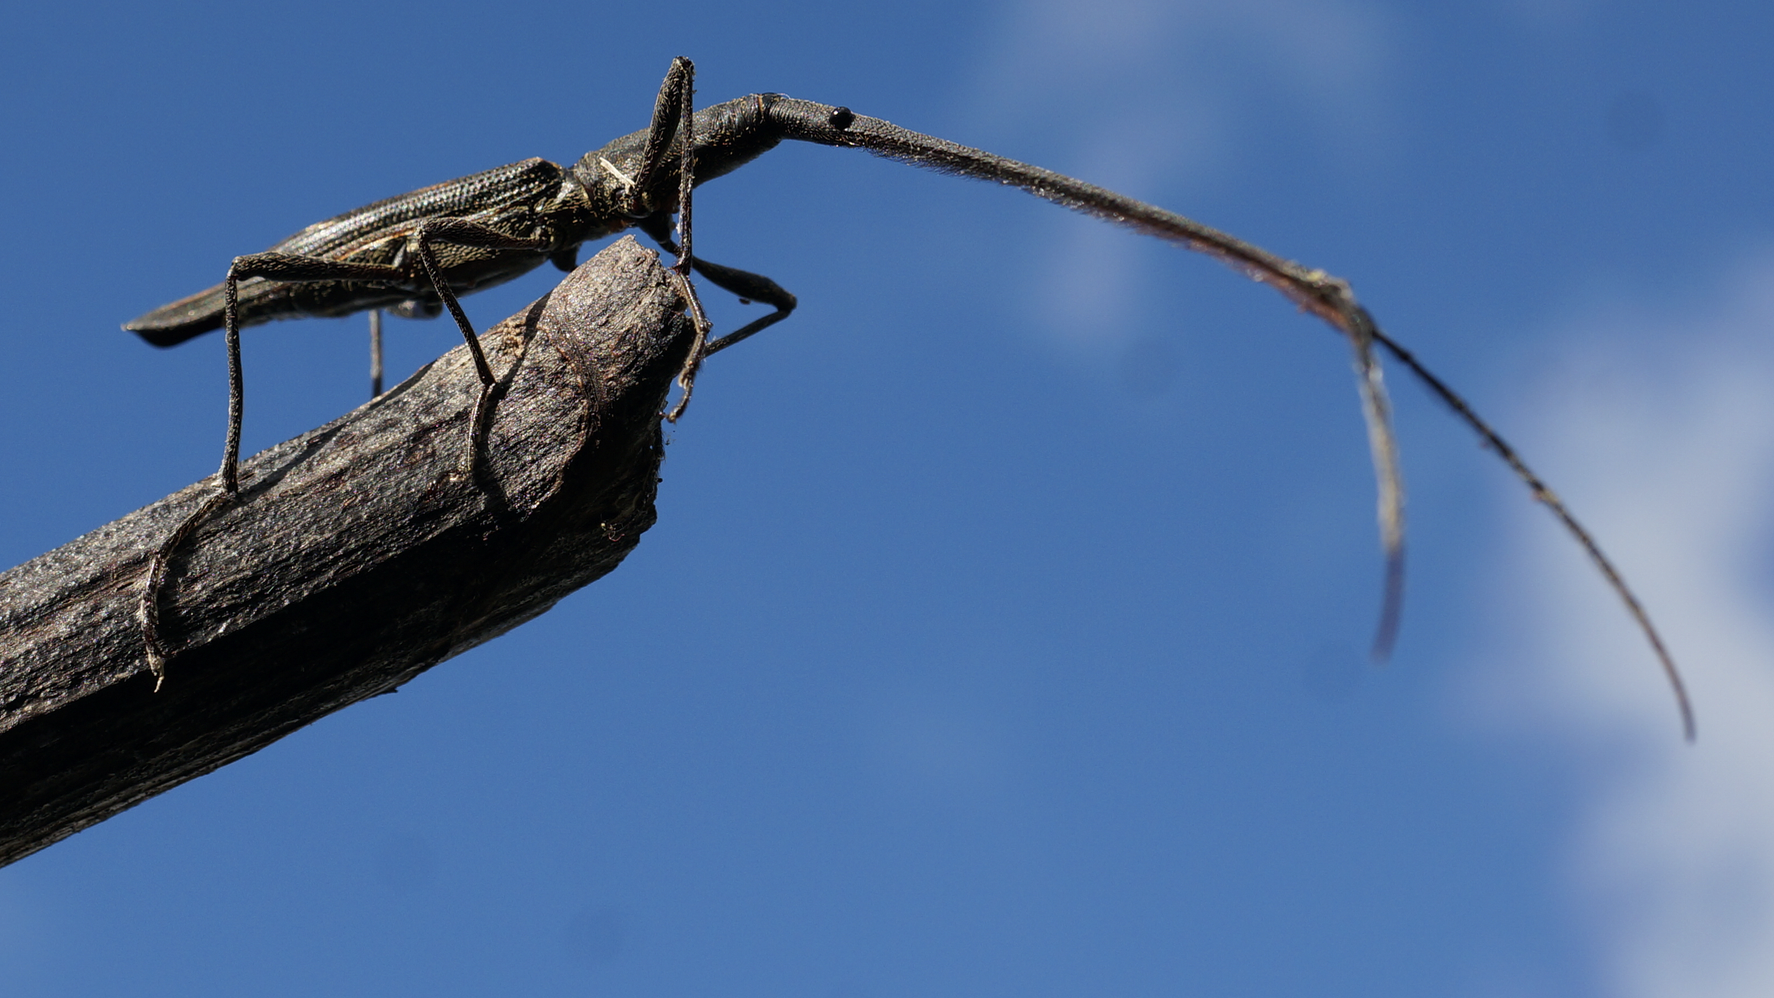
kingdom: Animalia
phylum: Arthropoda
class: Insecta
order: Coleoptera
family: Brentidae
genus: Lasiorhynchus
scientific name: Lasiorhynchus barbicornis
